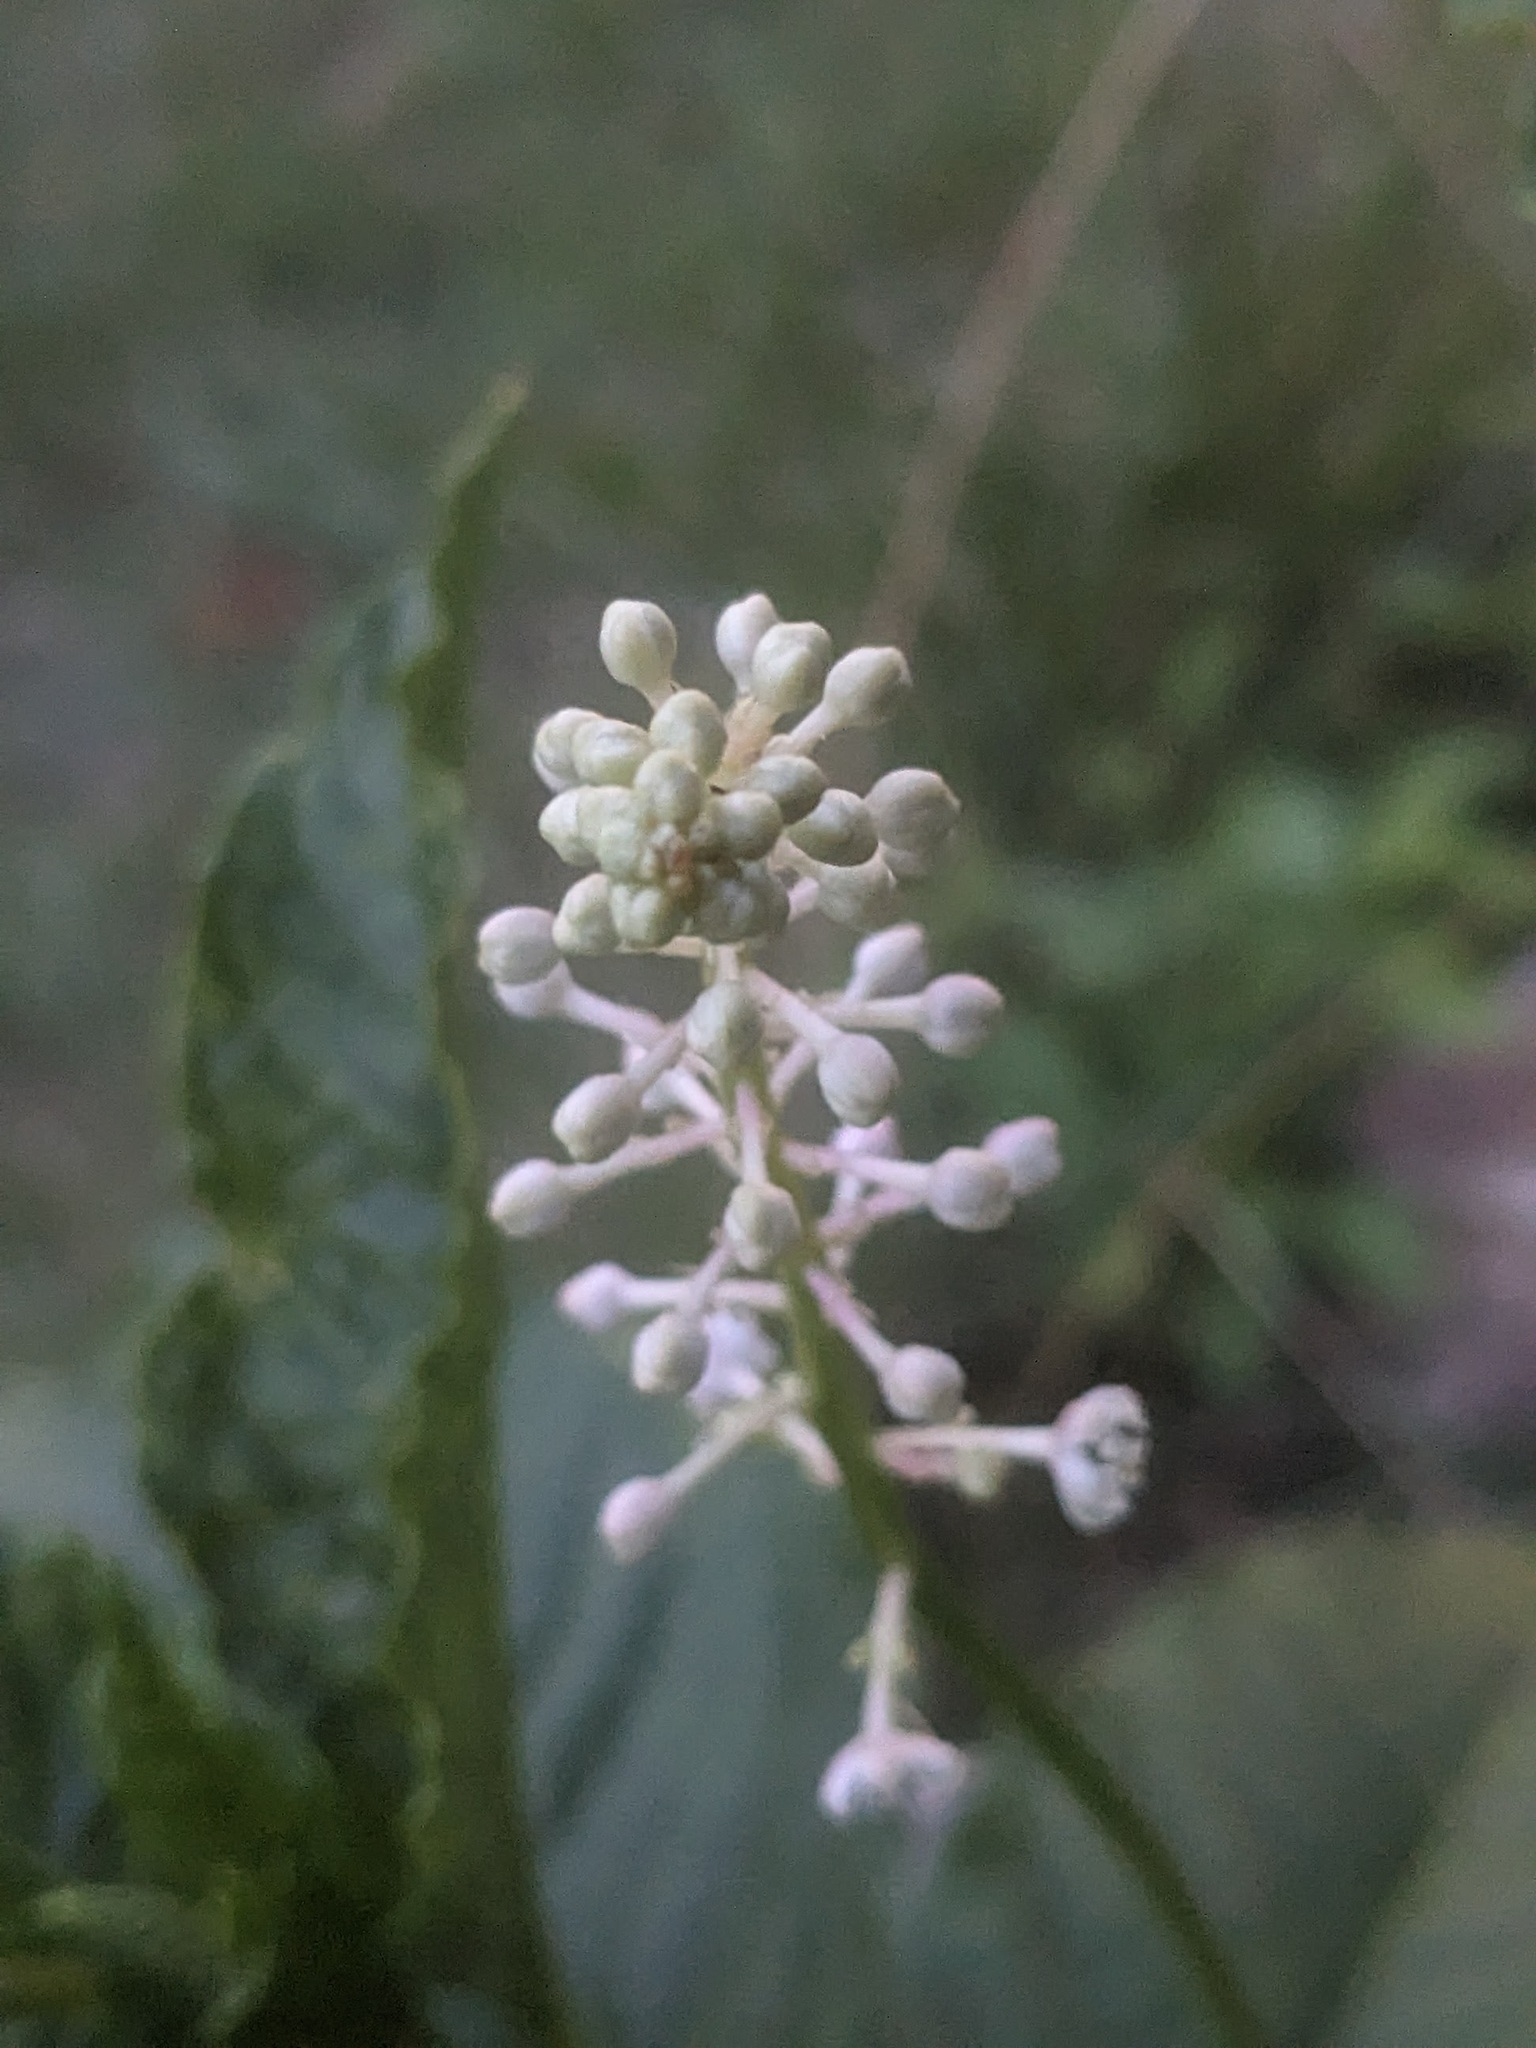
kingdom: Plantae
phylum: Tracheophyta
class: Magnoliopsida
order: Caryophyllales
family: Phytolaccaceae
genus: Phytolacca
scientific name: Phytolacca americana
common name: American pokeweed
